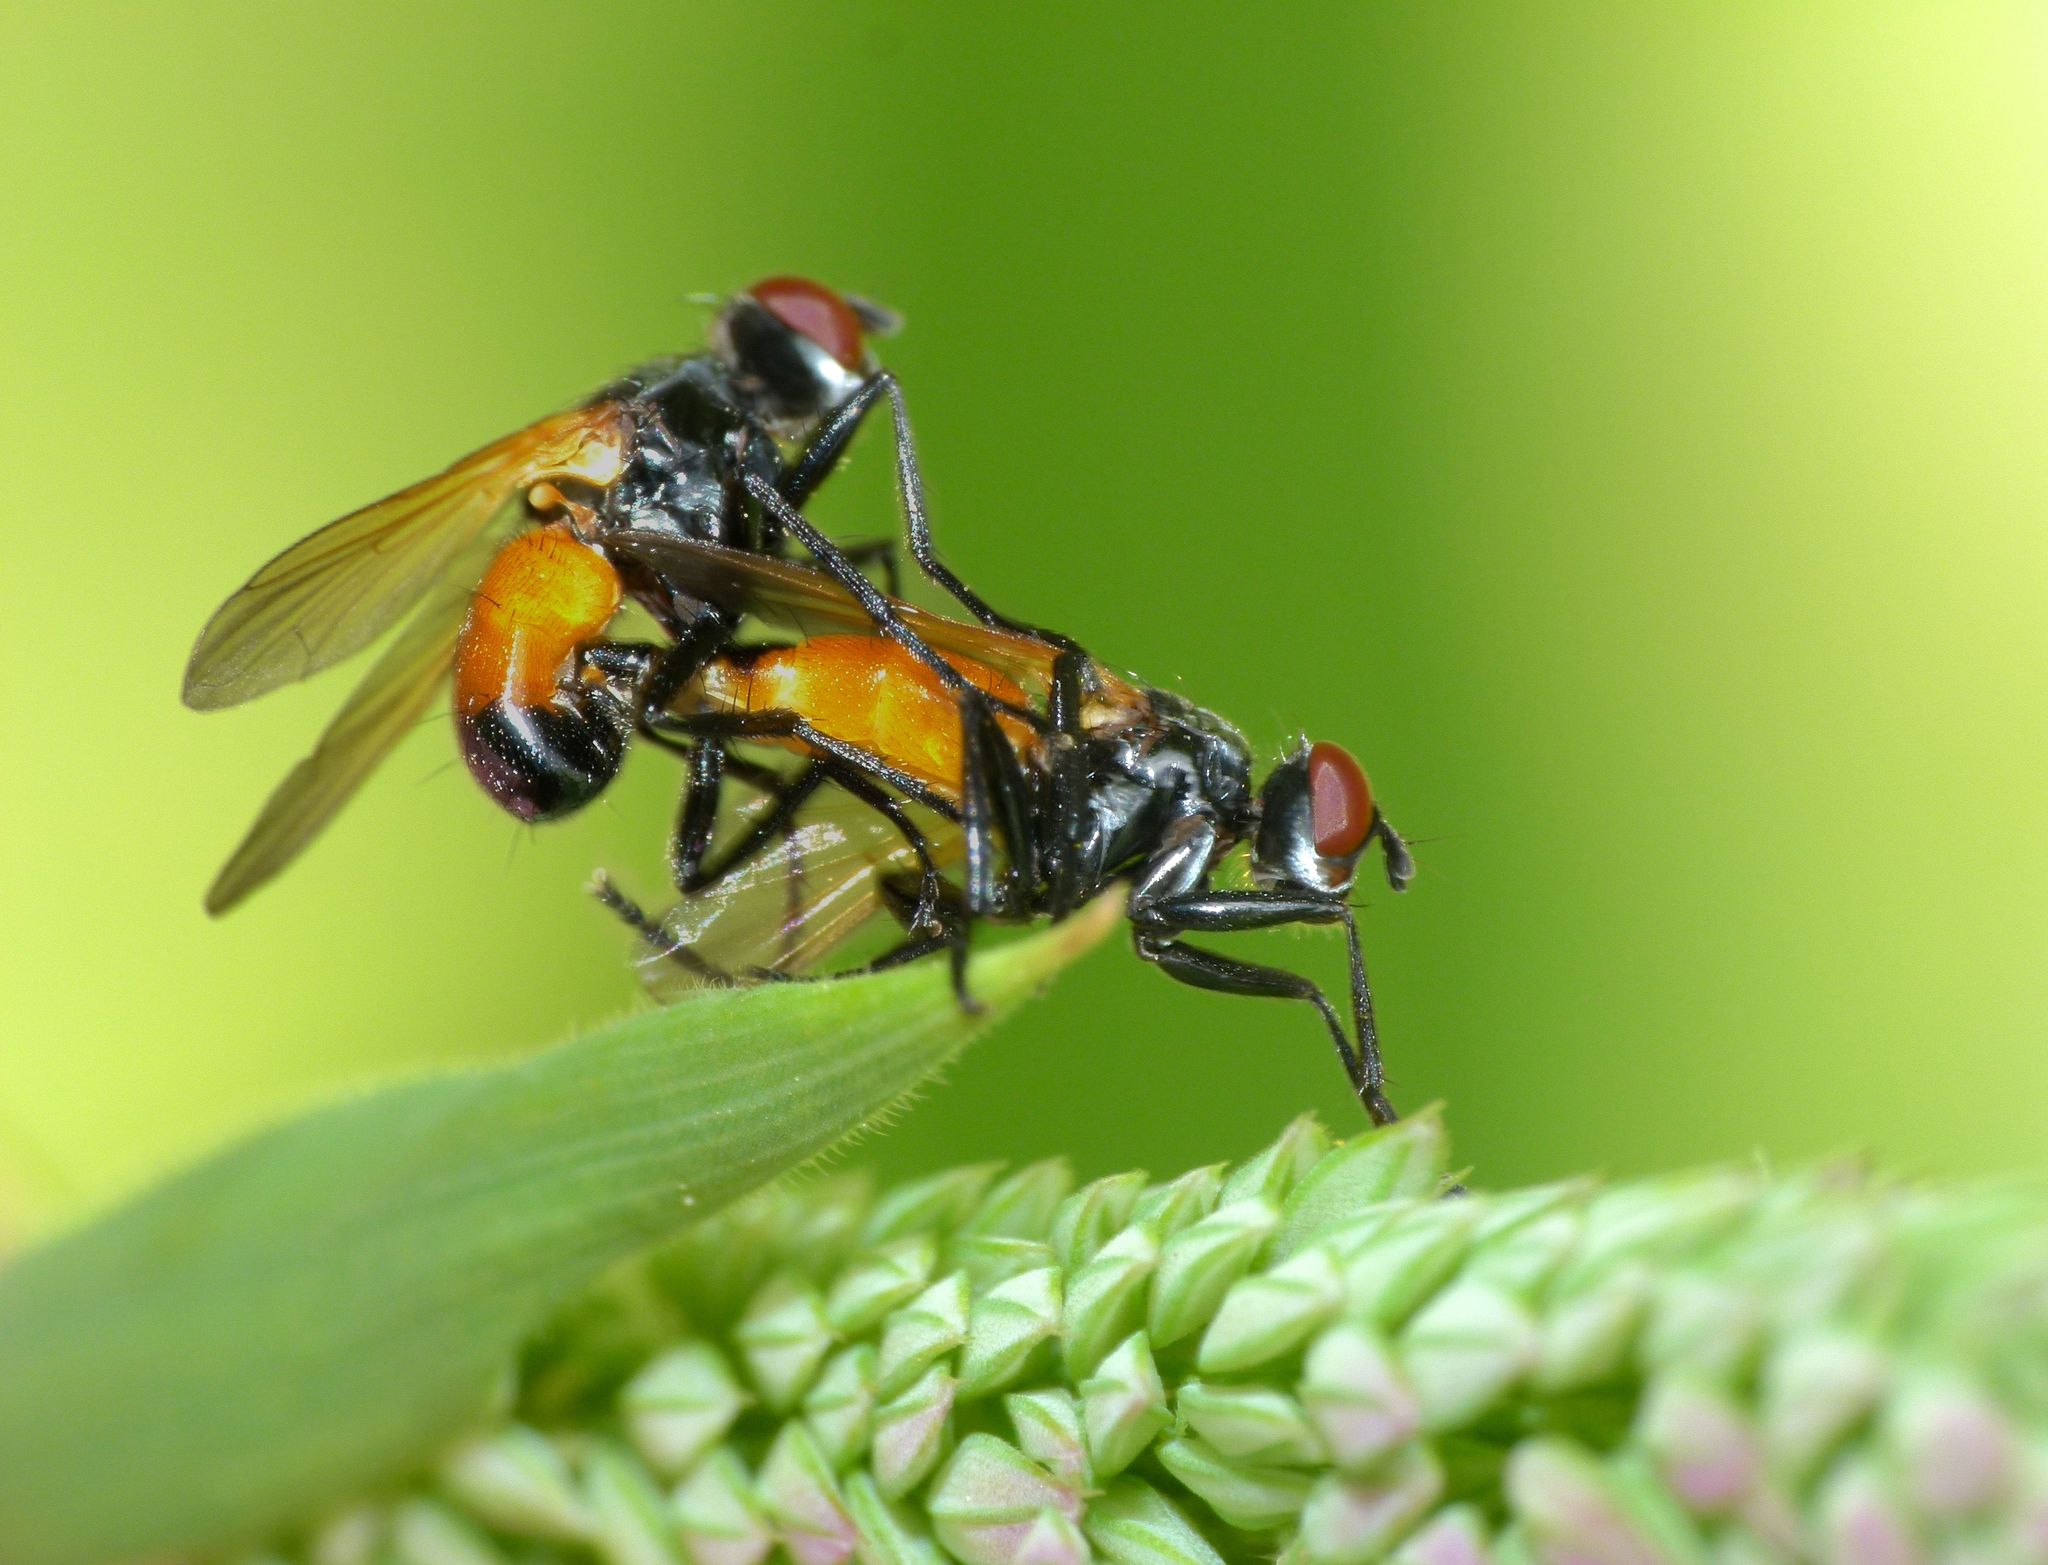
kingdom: Animalia
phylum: Arthropoda
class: Insecta
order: Diptera
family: Tachinidae
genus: Huttonobesseria
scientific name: Huttonobesseria verecunda
